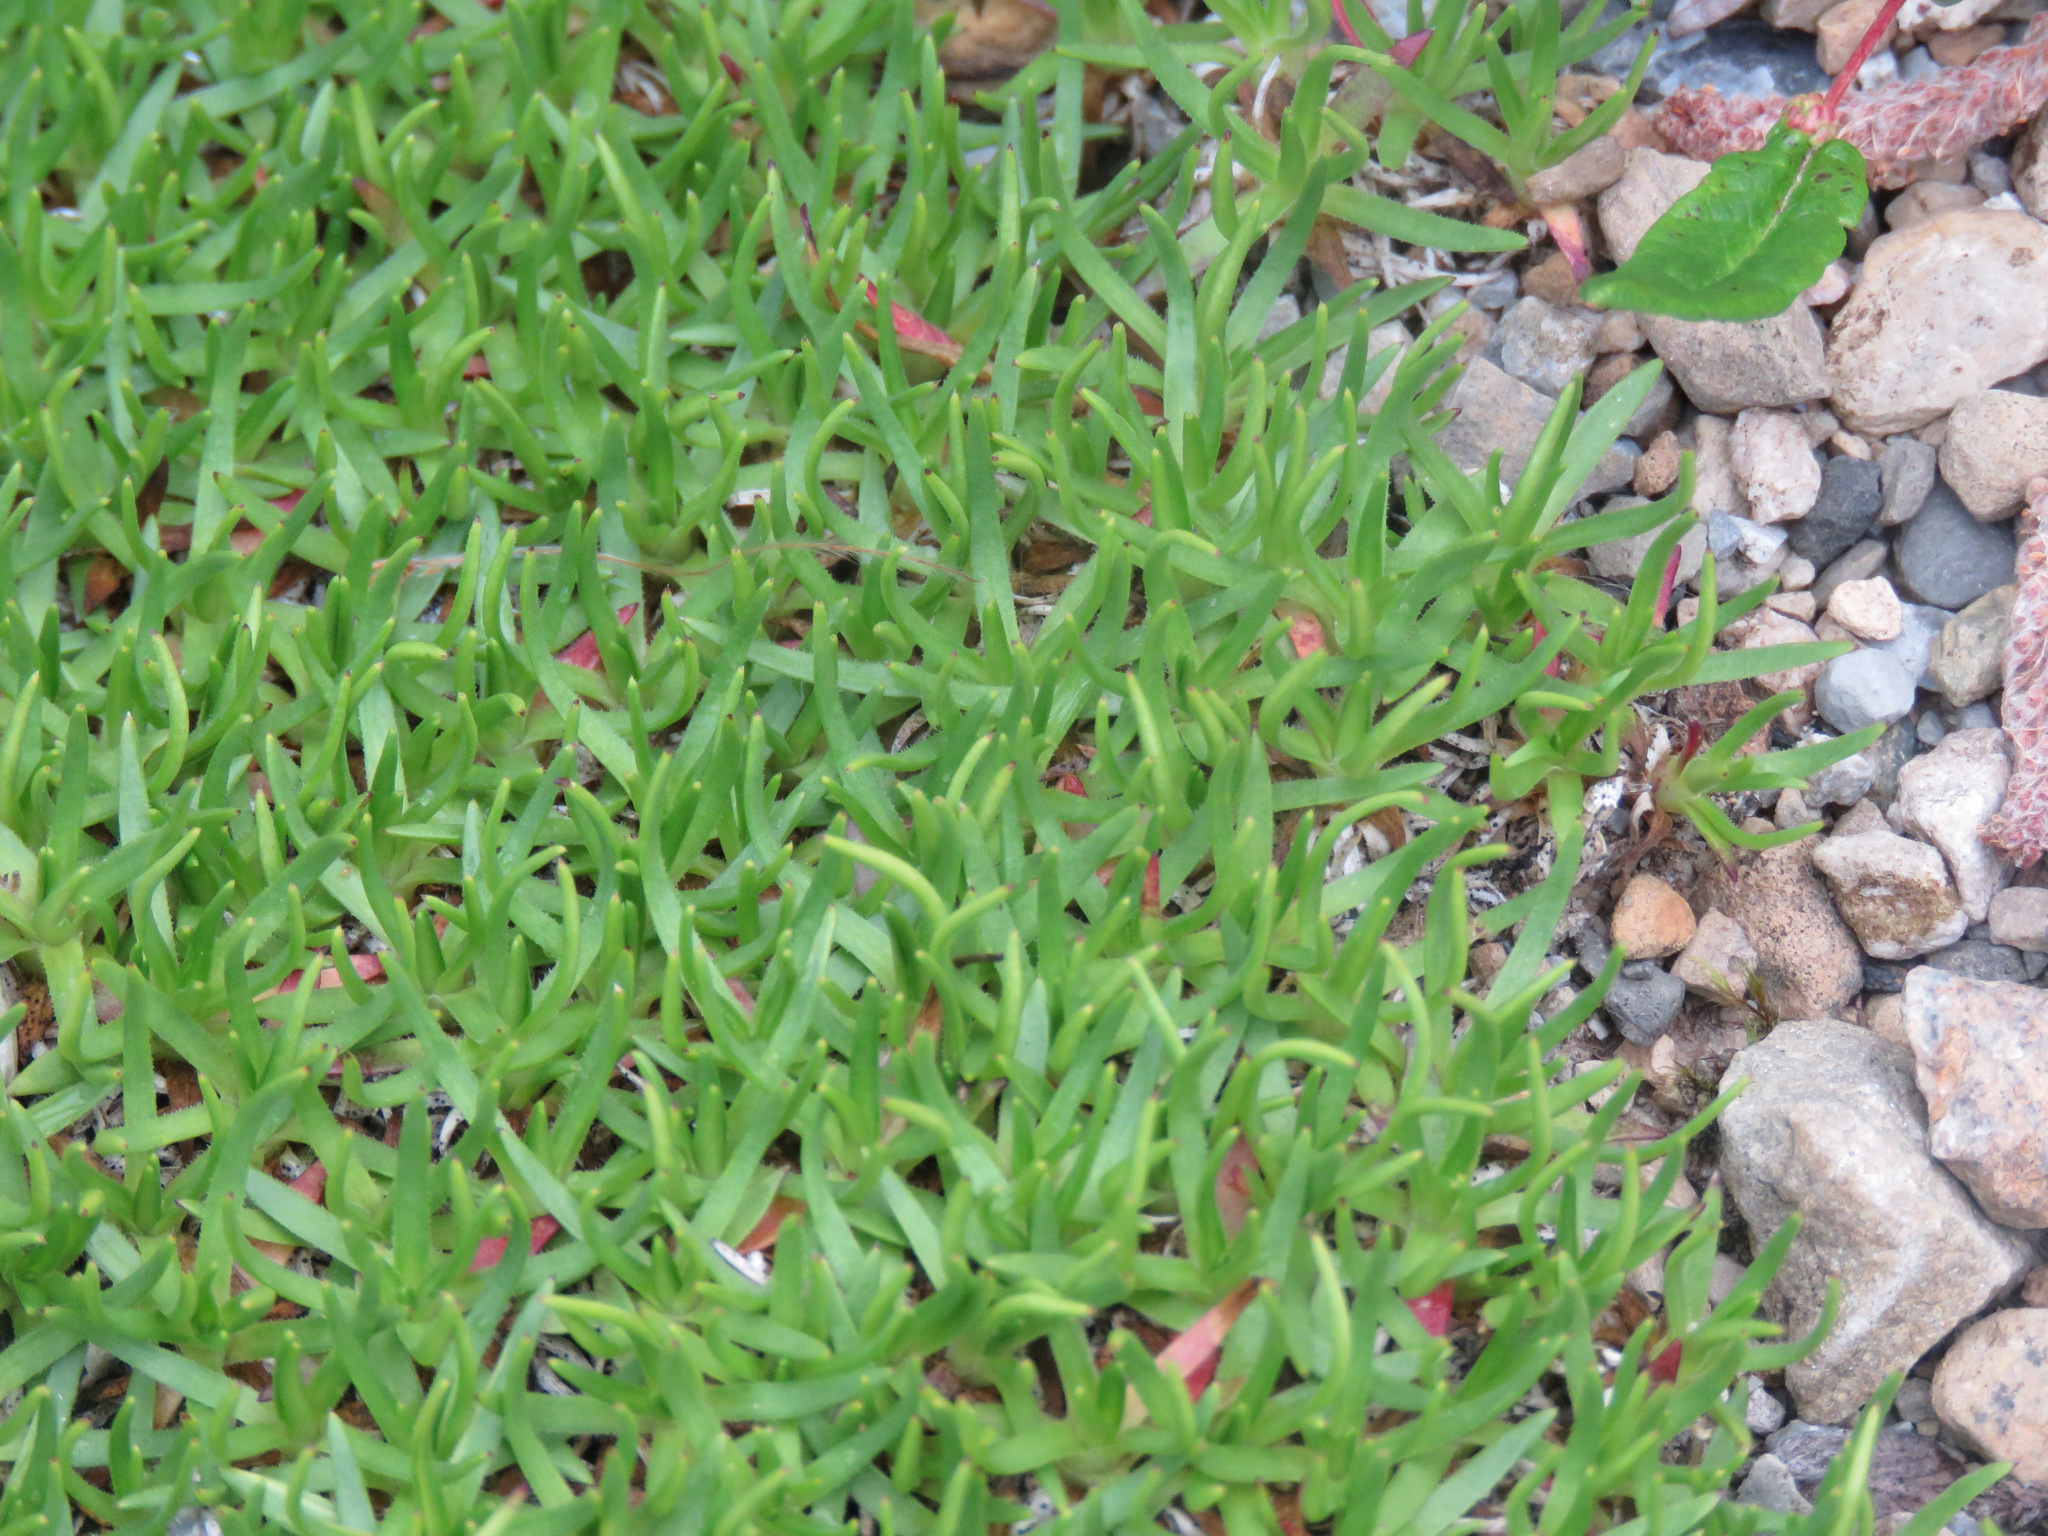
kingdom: Plantae
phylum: Tracheophyta
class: Magnoliopsida
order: Caryophyllales
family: Caryophyllaceae
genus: Silene
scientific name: Silene acaulis
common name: Moss campion
